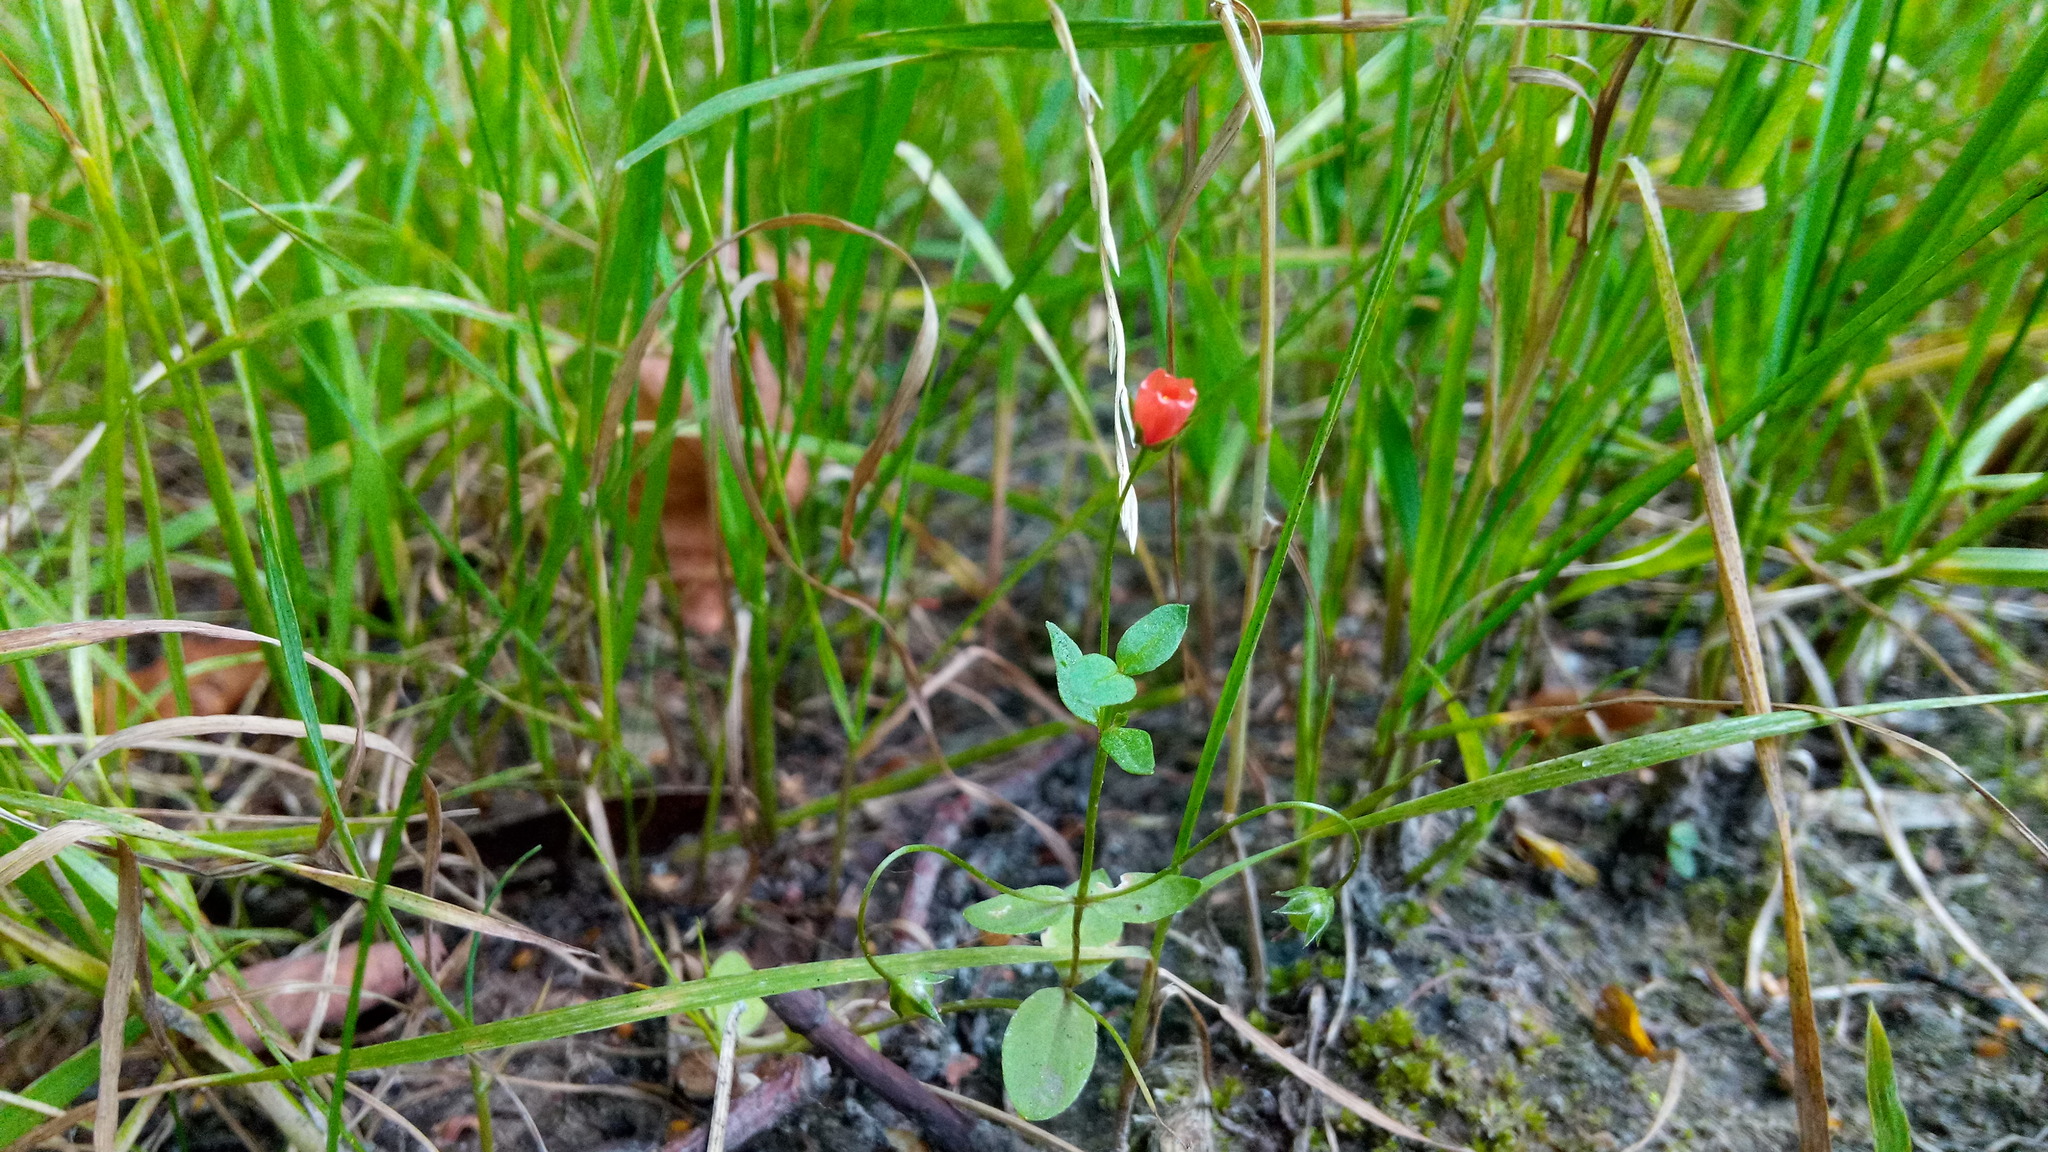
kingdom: Plantae
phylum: Tracheophyta
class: Magnoliopsida
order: Ericales
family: Primulaceae
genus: Lysimachia
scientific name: Lysimachia arvensis
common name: Scarlet pimpernel
